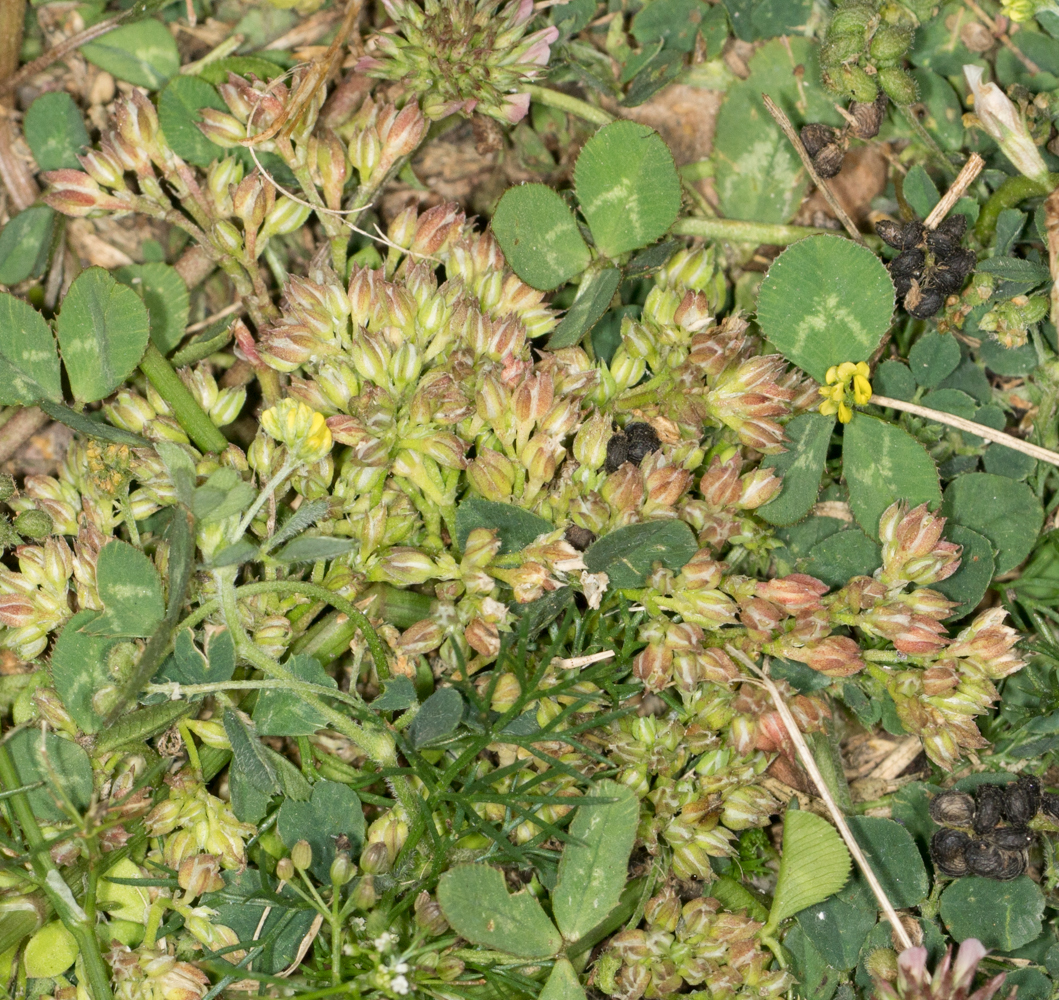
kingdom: Plantae
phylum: Tracheophyta
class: Magnoliopsida
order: Caryophyllales
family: Caryophyllaceae
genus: Polycarpon
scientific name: Polycarpon tetraphyllum
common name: Four-leaved all-seed
